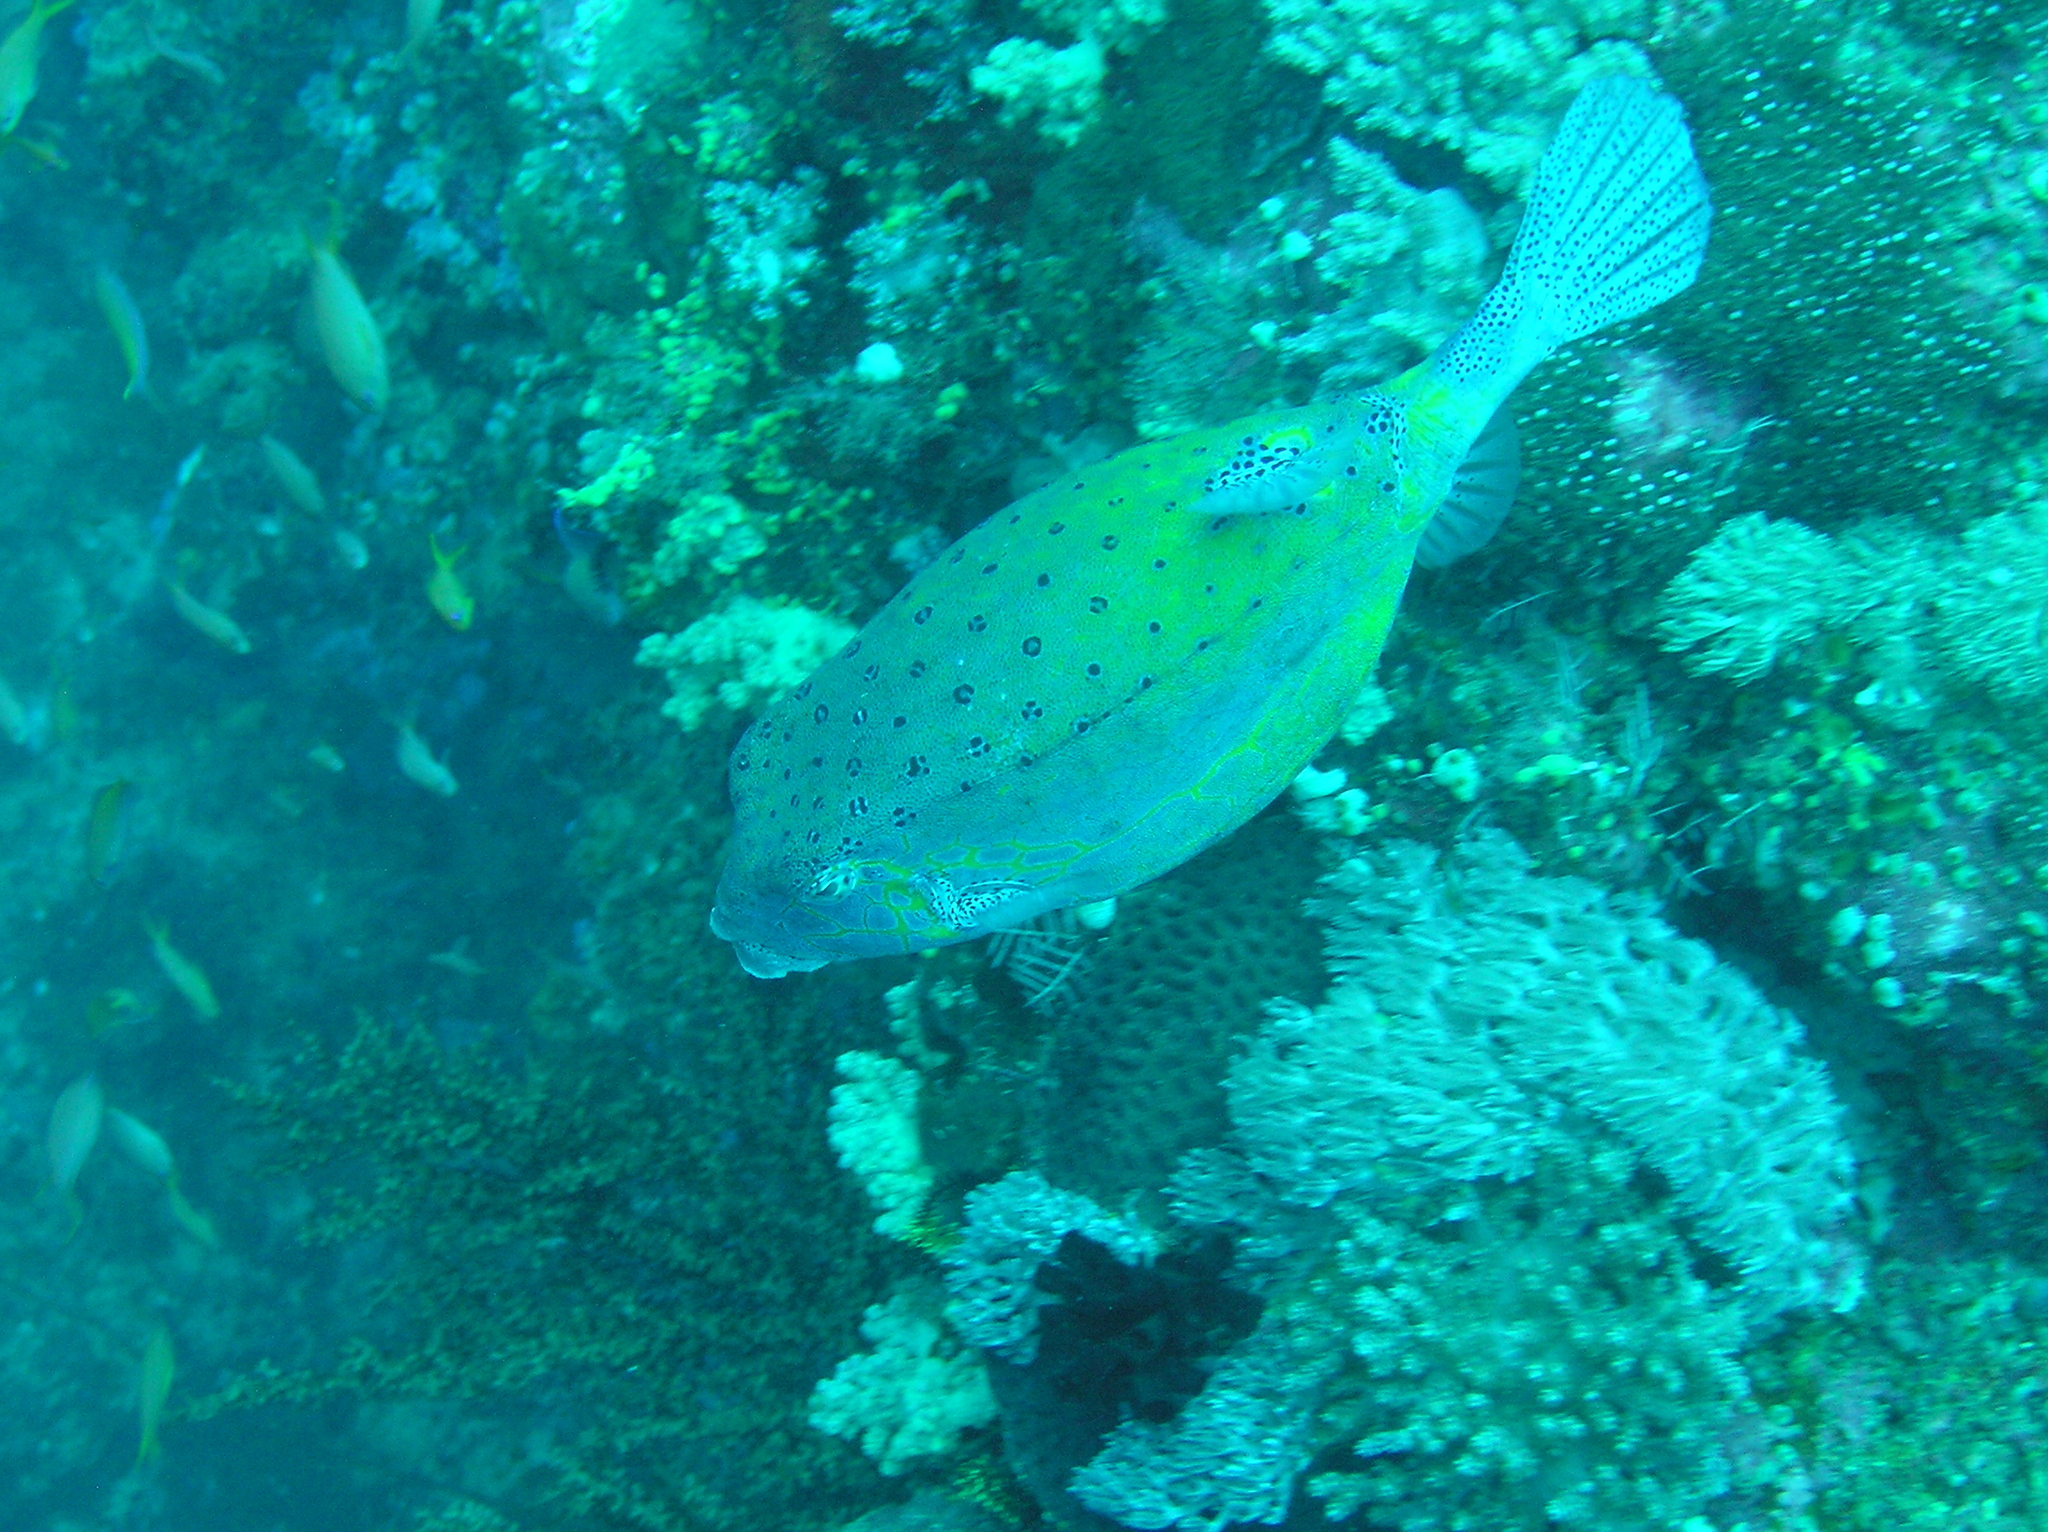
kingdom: Animalia
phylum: Chordata
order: Tetraodontiformes
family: Ostraciidae
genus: Ostracion
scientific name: Ostracion cubicus
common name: Cube trunkfish
